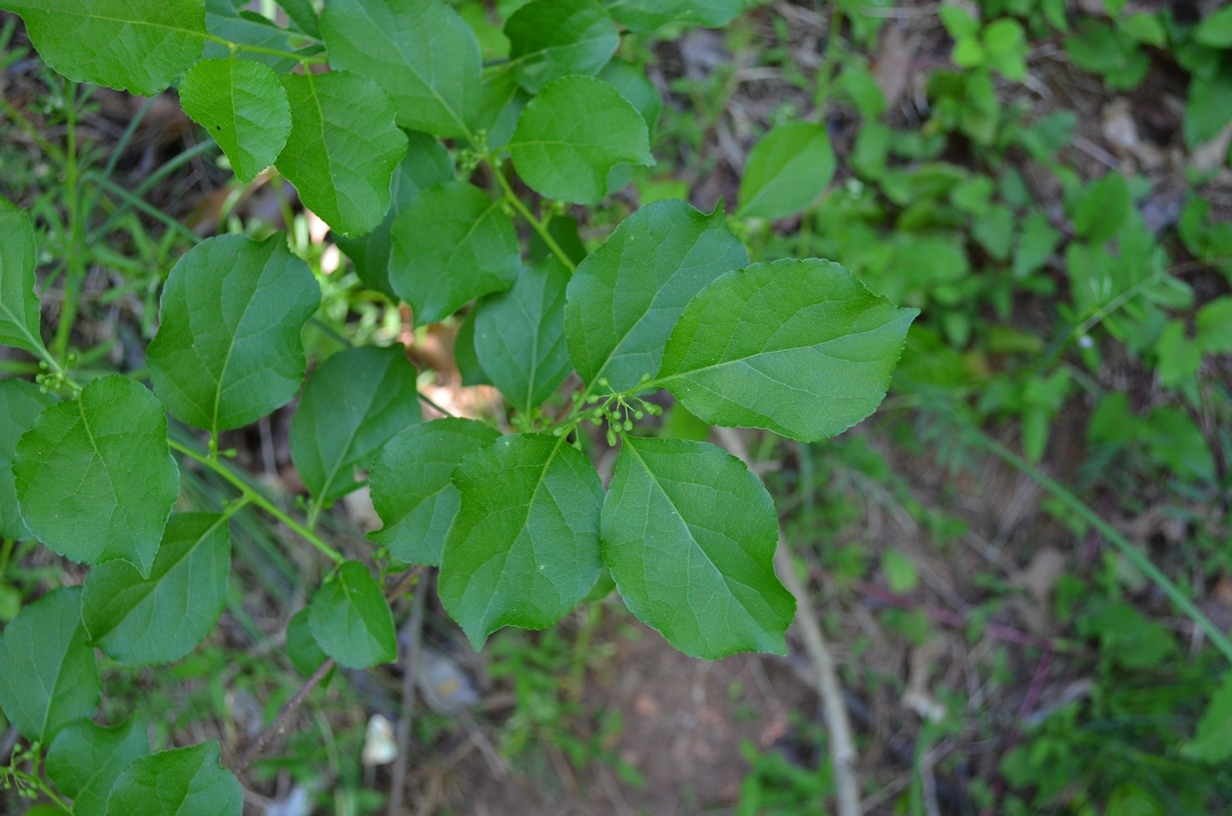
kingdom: Plantae
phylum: Tracheophyta
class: Magnoliopsida
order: Celastrales
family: Celastraceae
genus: Celastrus
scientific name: Celastrus orbiculatus
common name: Oriental bittersweet
